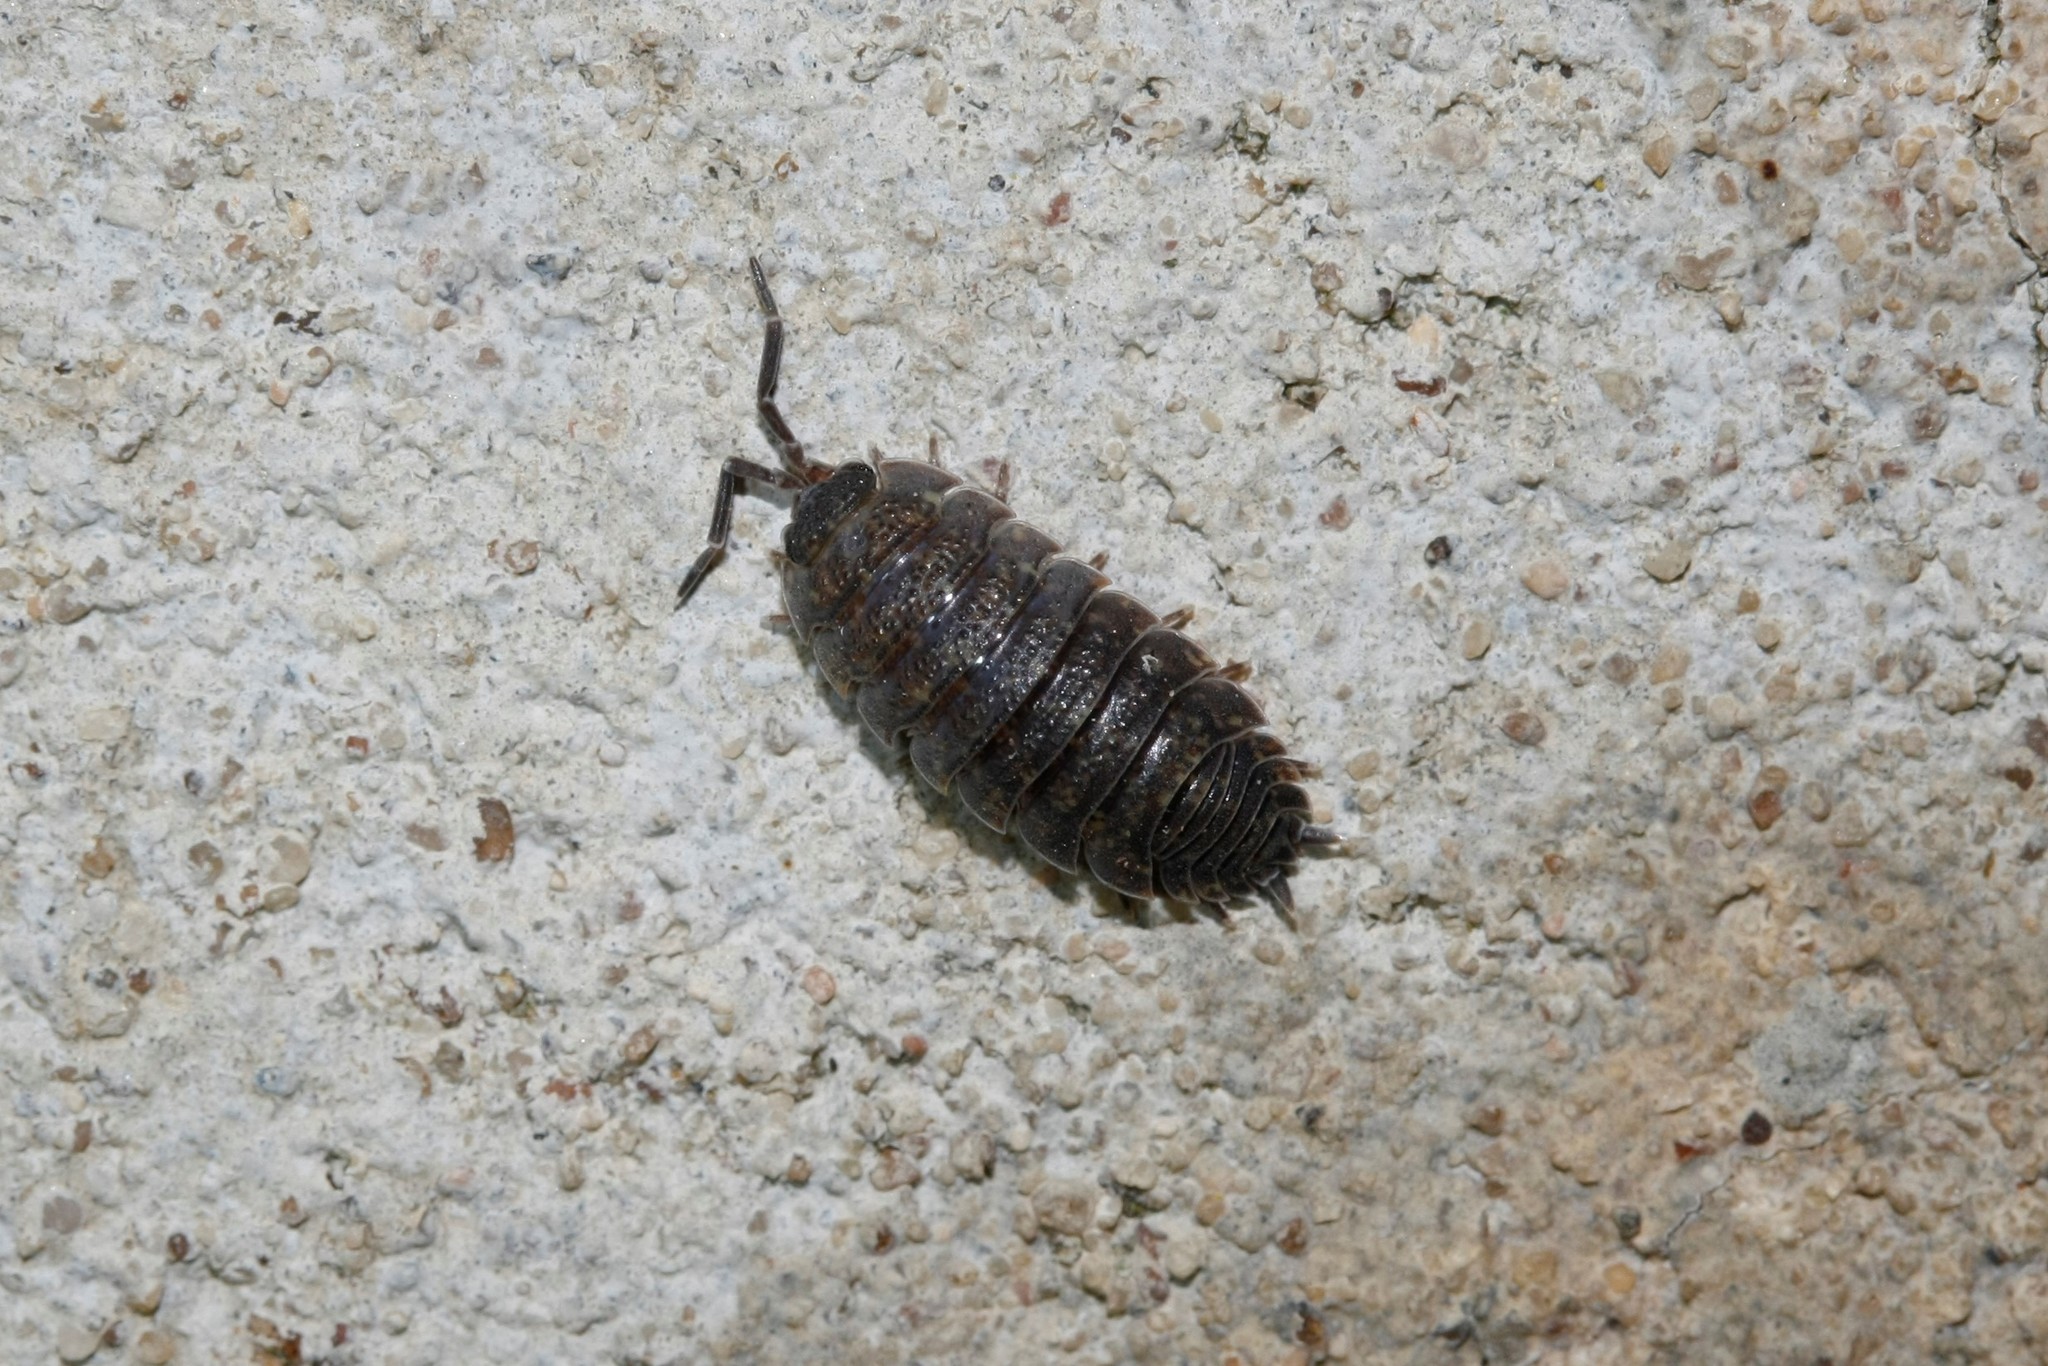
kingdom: Animalia
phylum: Arthropoda
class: Malacostraca
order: Isopoda
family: Porcellionidae
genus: Porcellio
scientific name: Porcellio scaber
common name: Common rough woodlouse
